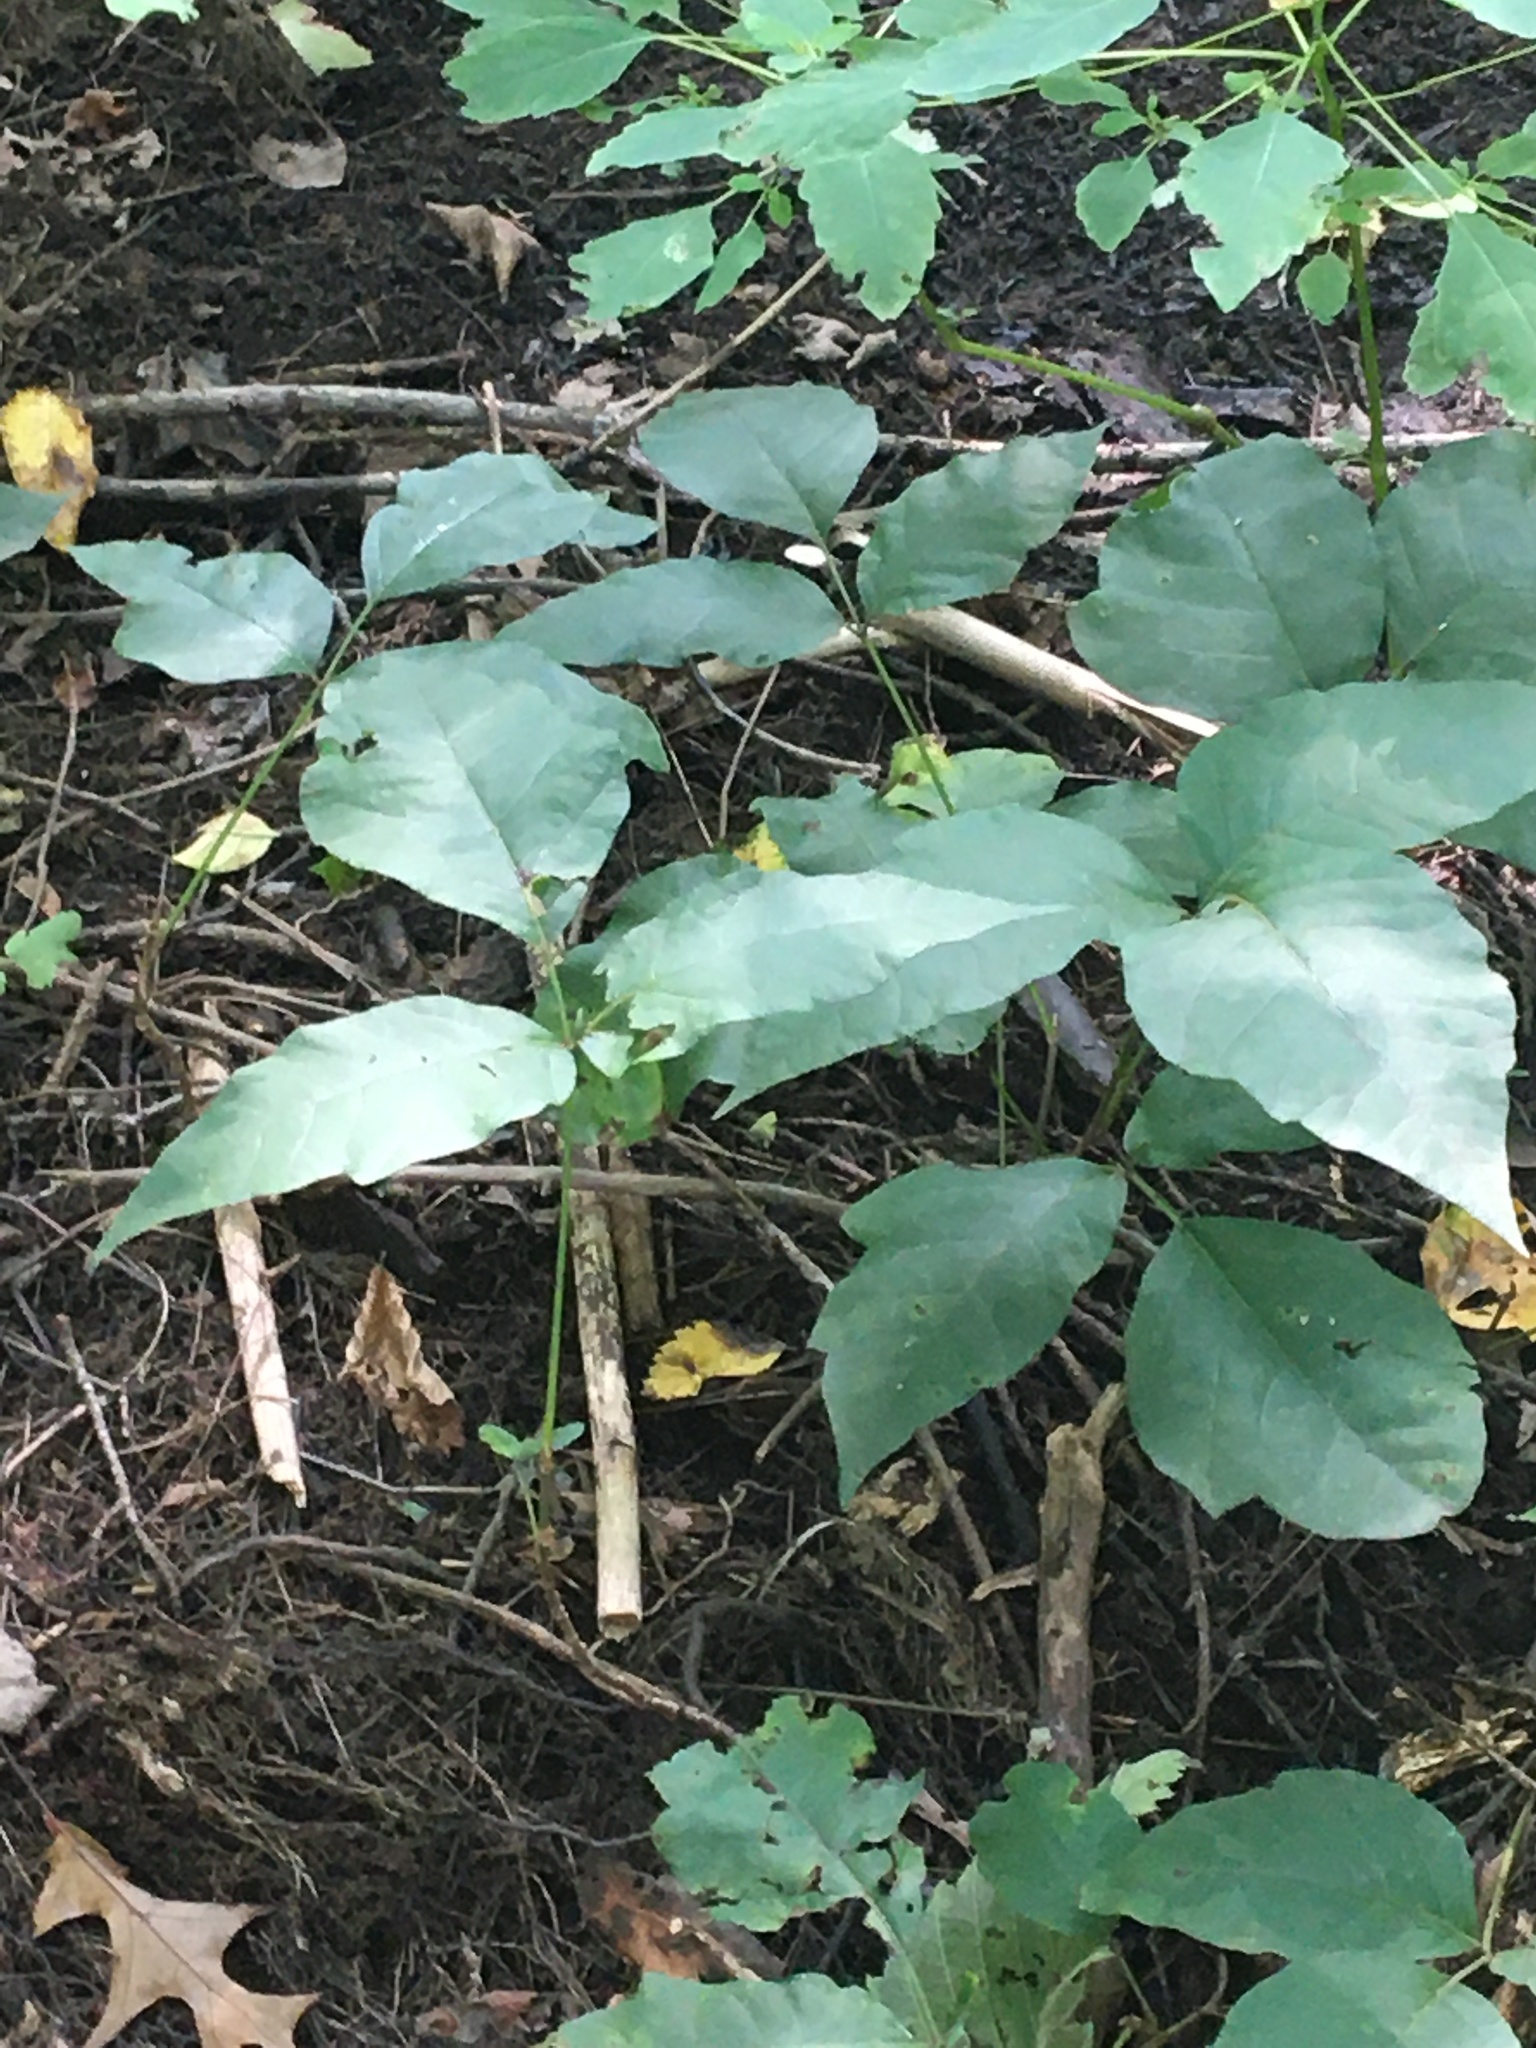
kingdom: Plantae
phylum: Tracheophyta
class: Magnoliopsida
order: Sapindales
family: Anacardiaceae
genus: Toxicodendron
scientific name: Toxicodendron
